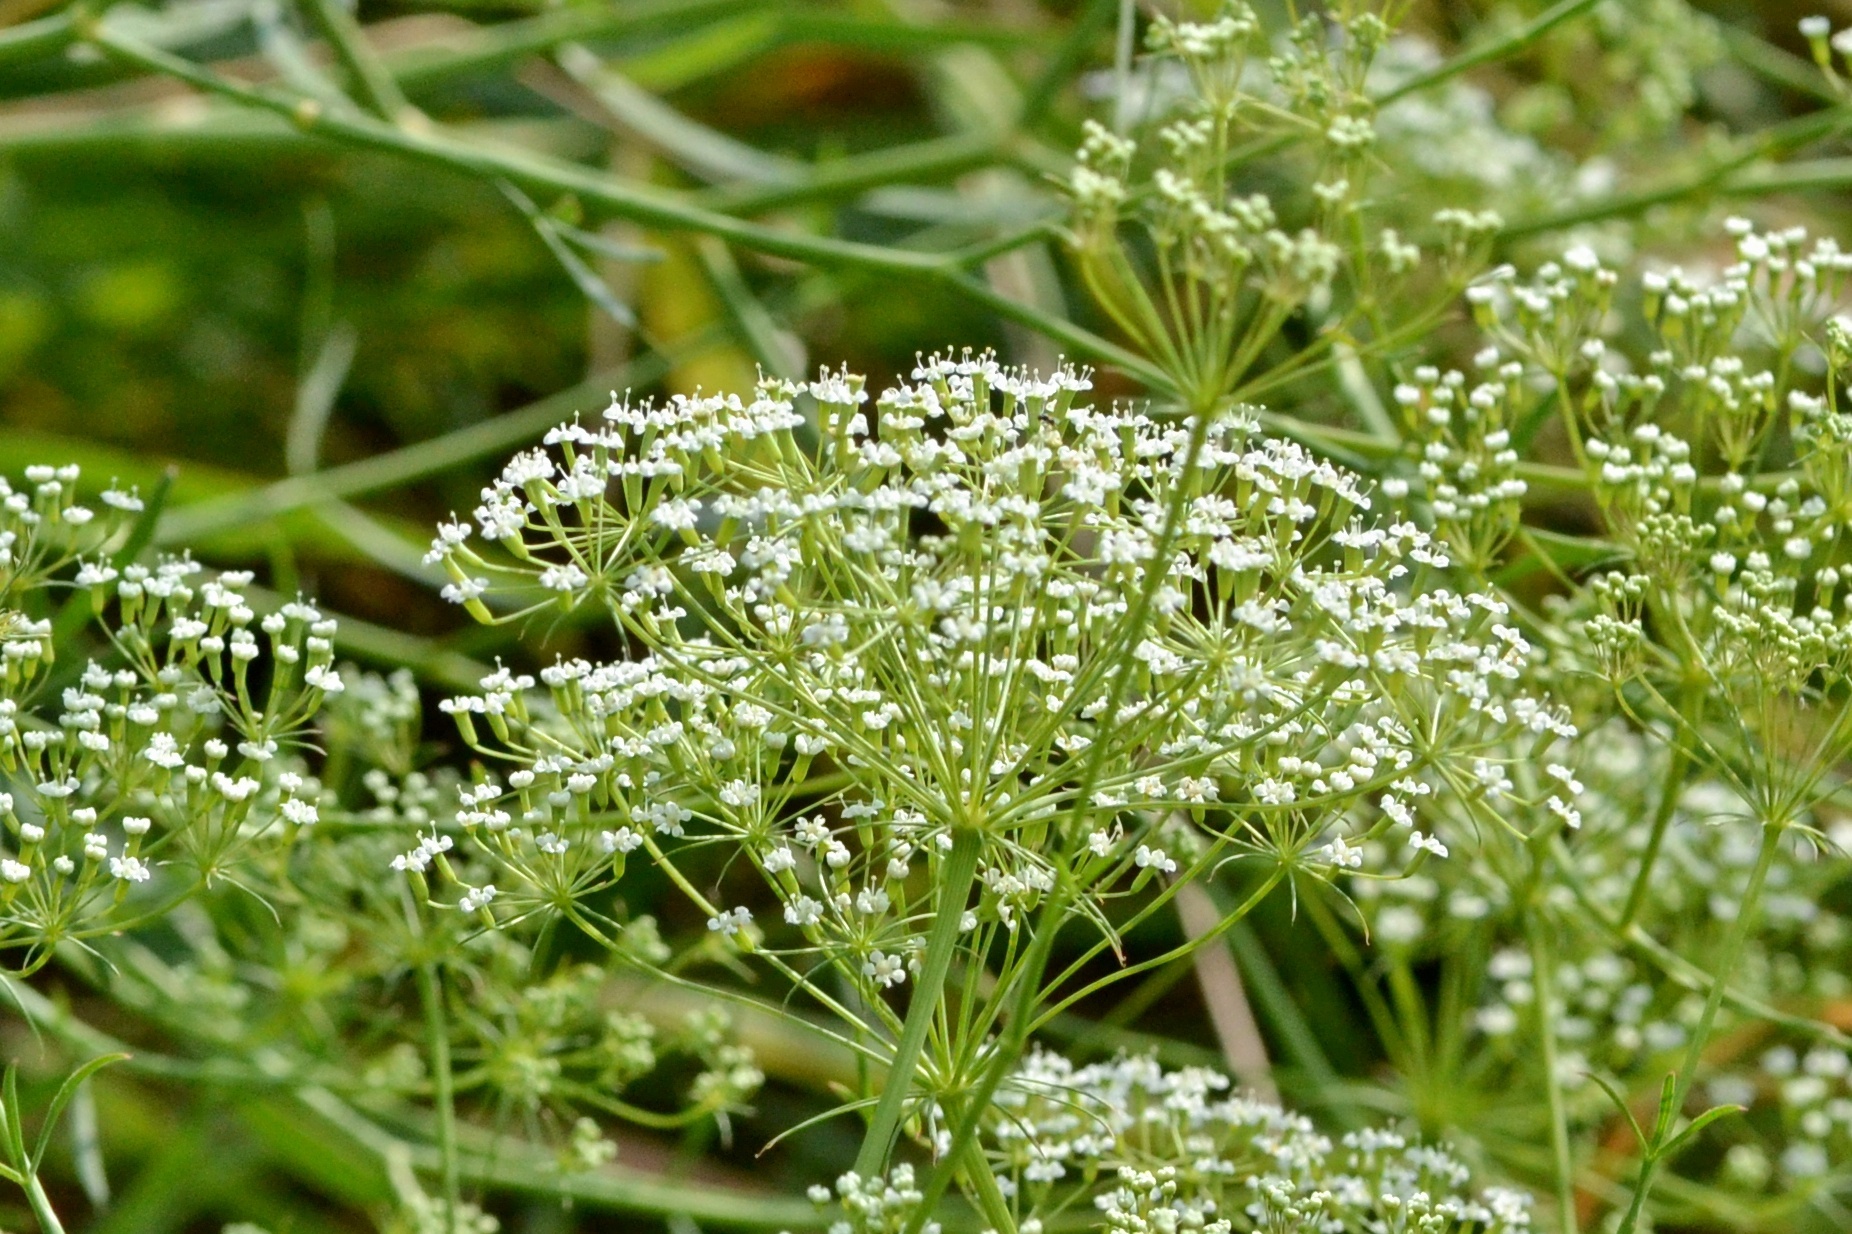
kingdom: Plantae
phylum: Tracheophyta
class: Magnoliopsida
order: Apiales
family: Apiaceae
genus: Falcaria
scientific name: Falcaria vulgaris
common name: Longleaf
